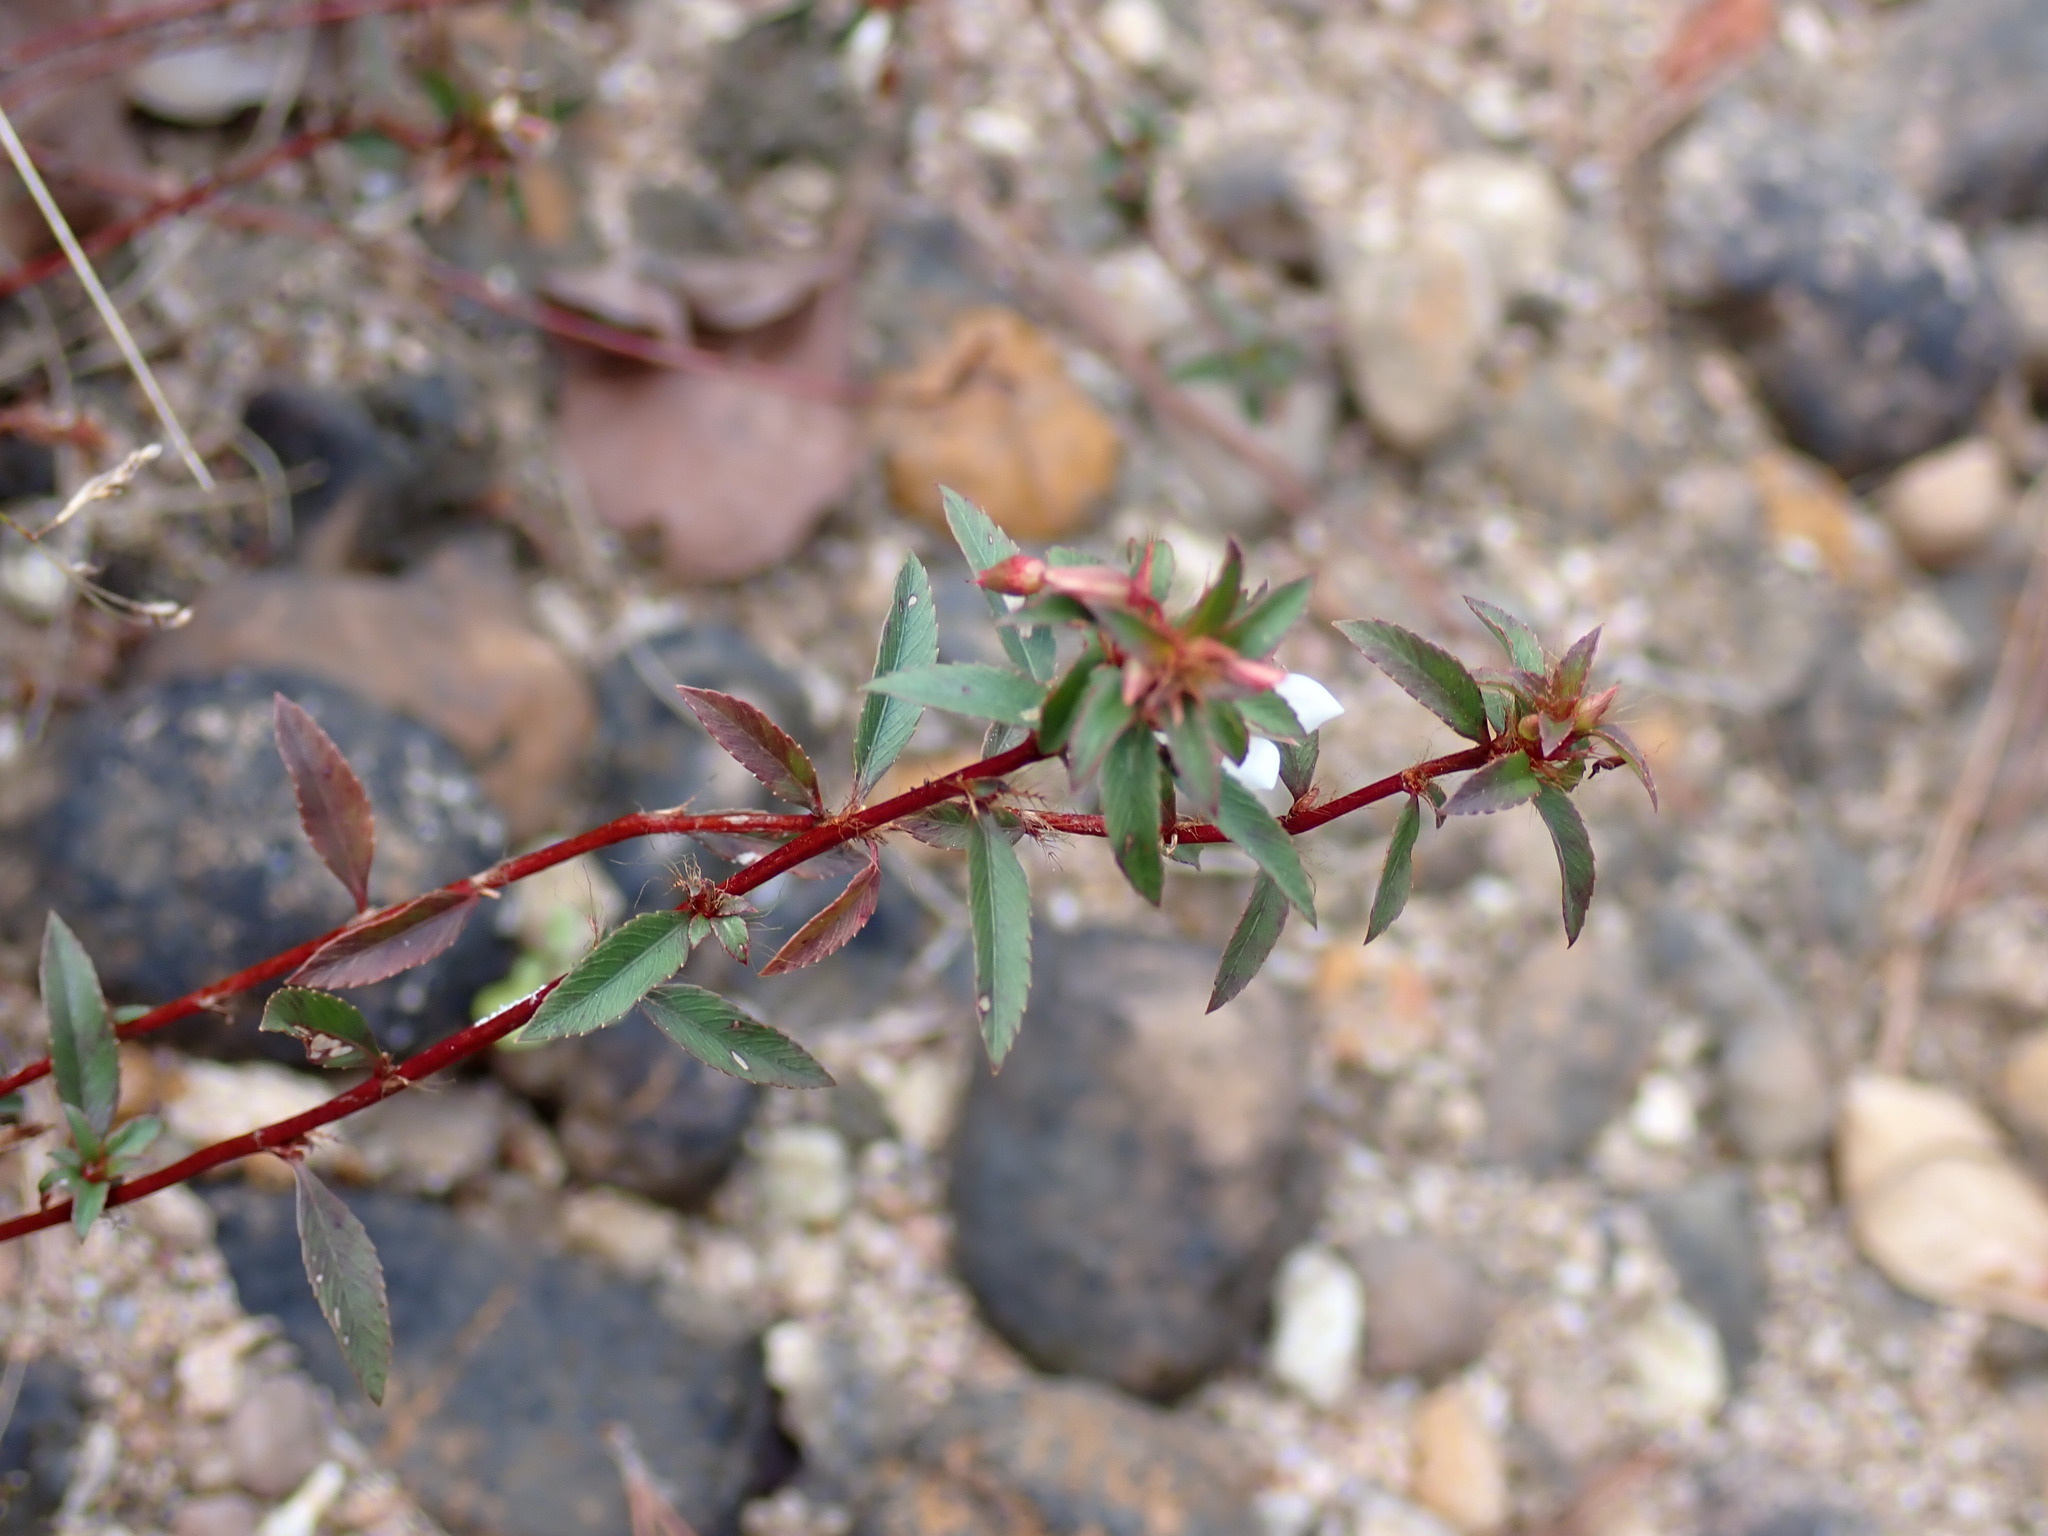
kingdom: Plantae
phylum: Tracheophyta
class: Magnoliopsida
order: Malpighiales
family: Ochnaceae
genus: Sauvagesia
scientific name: Sauvagesia erecta
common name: Creole tea
